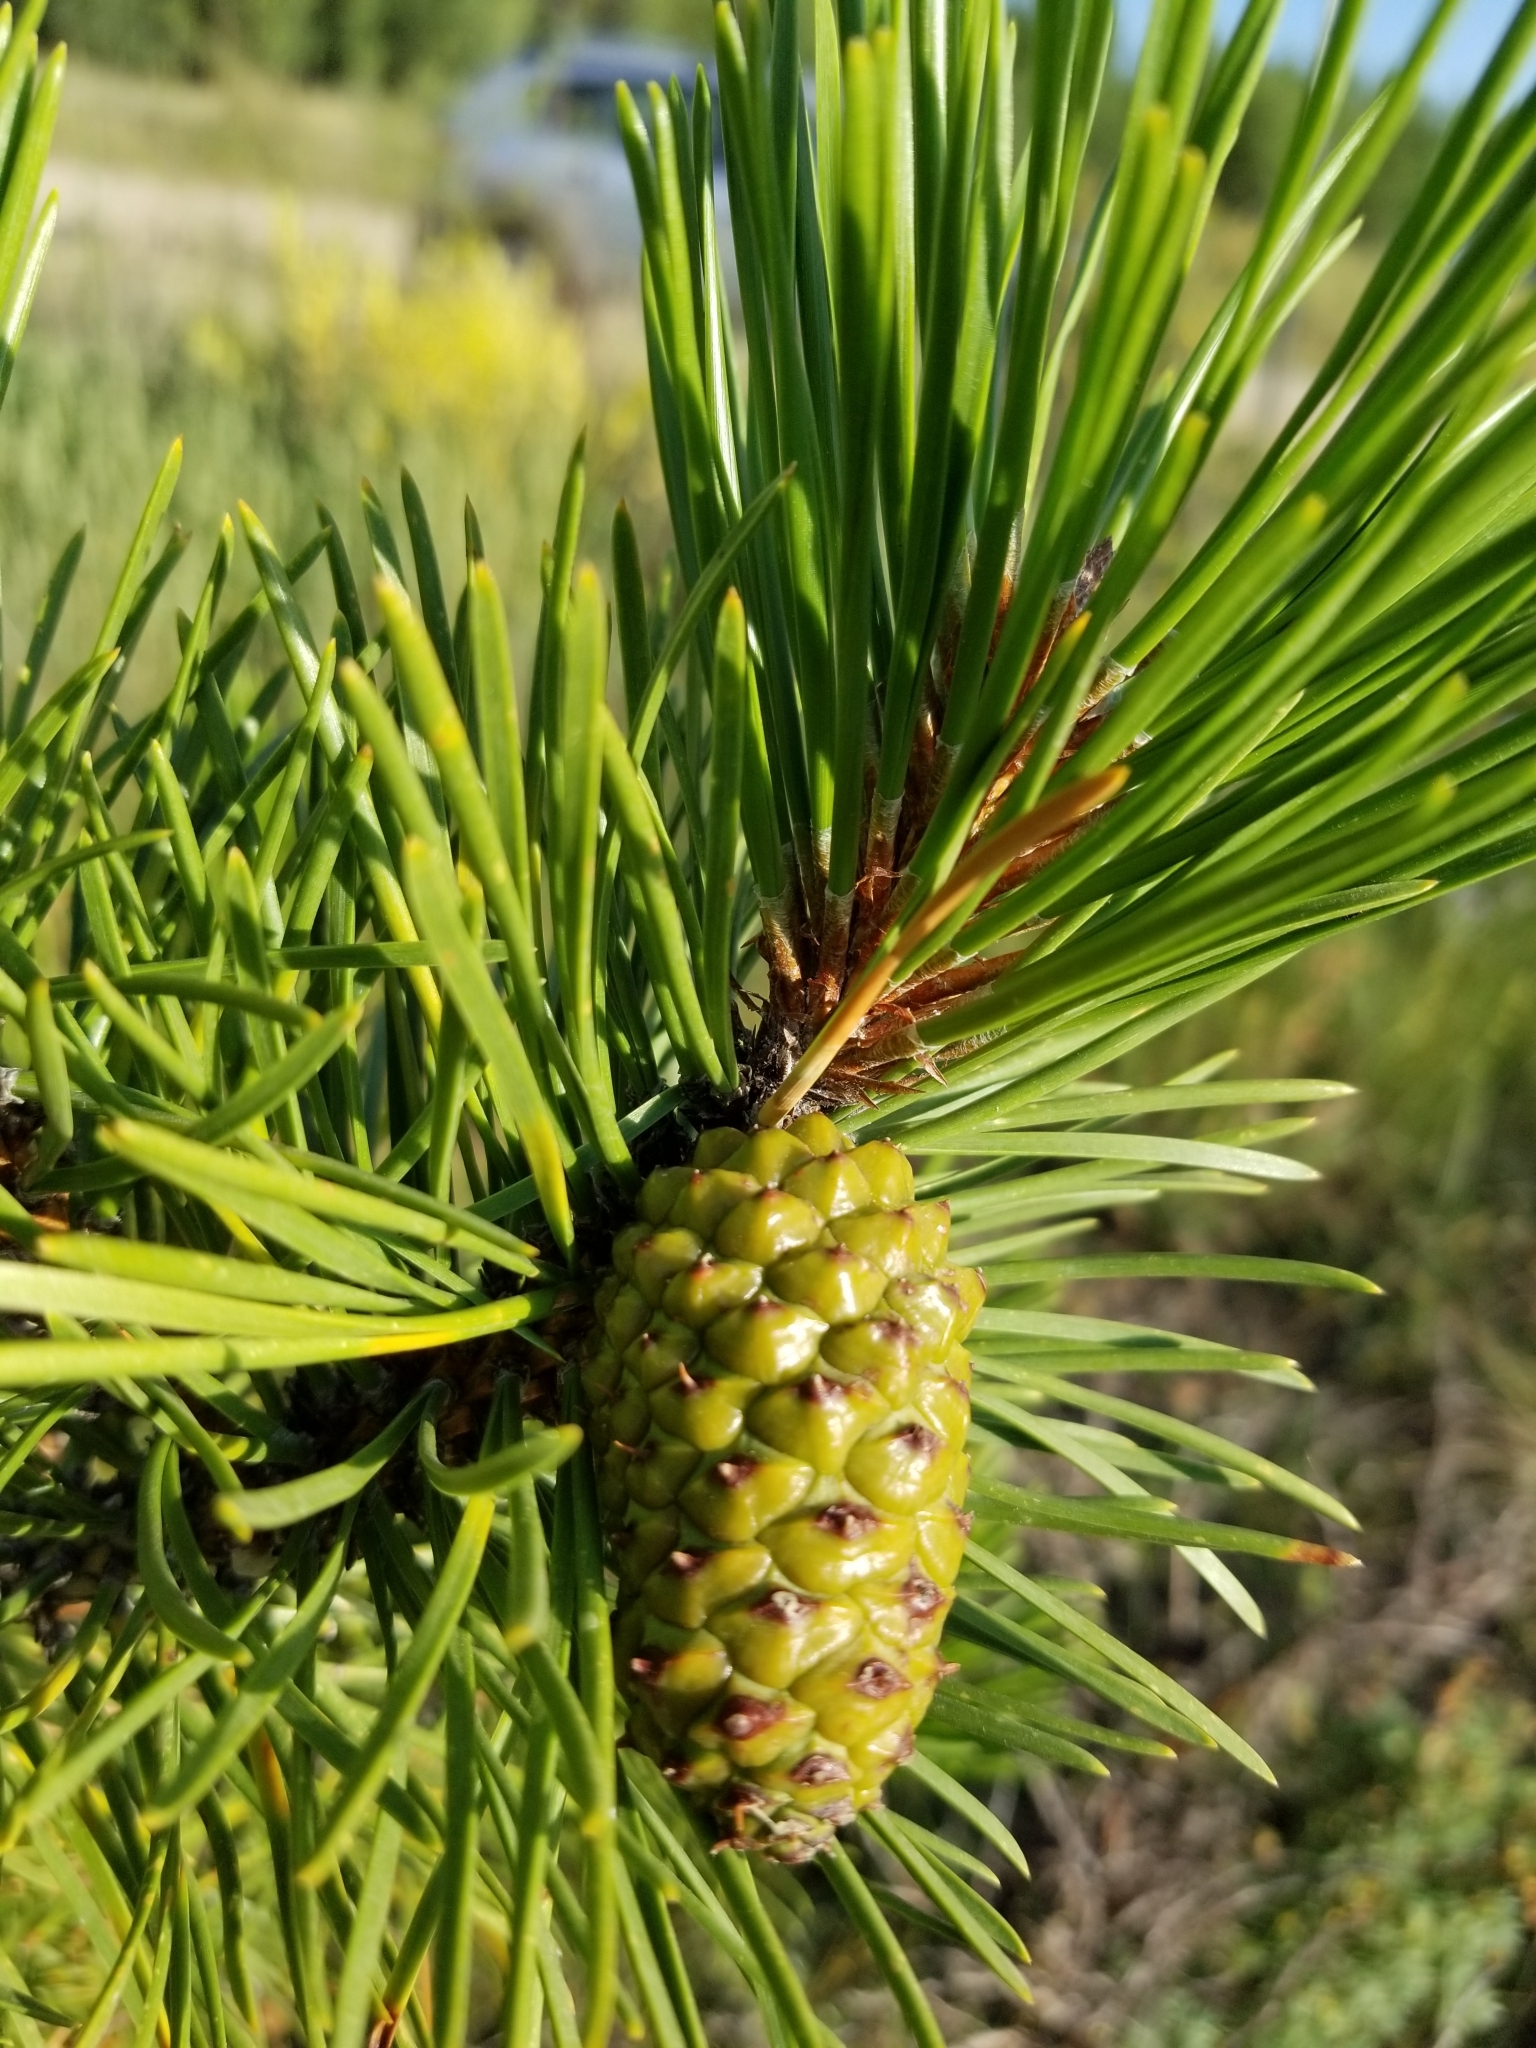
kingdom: Plantae
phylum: Tracheophyta
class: Pinopsida
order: Pinales
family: Pinaceae
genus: Pinus
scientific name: Pinus contorta
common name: Lodgepole pine
